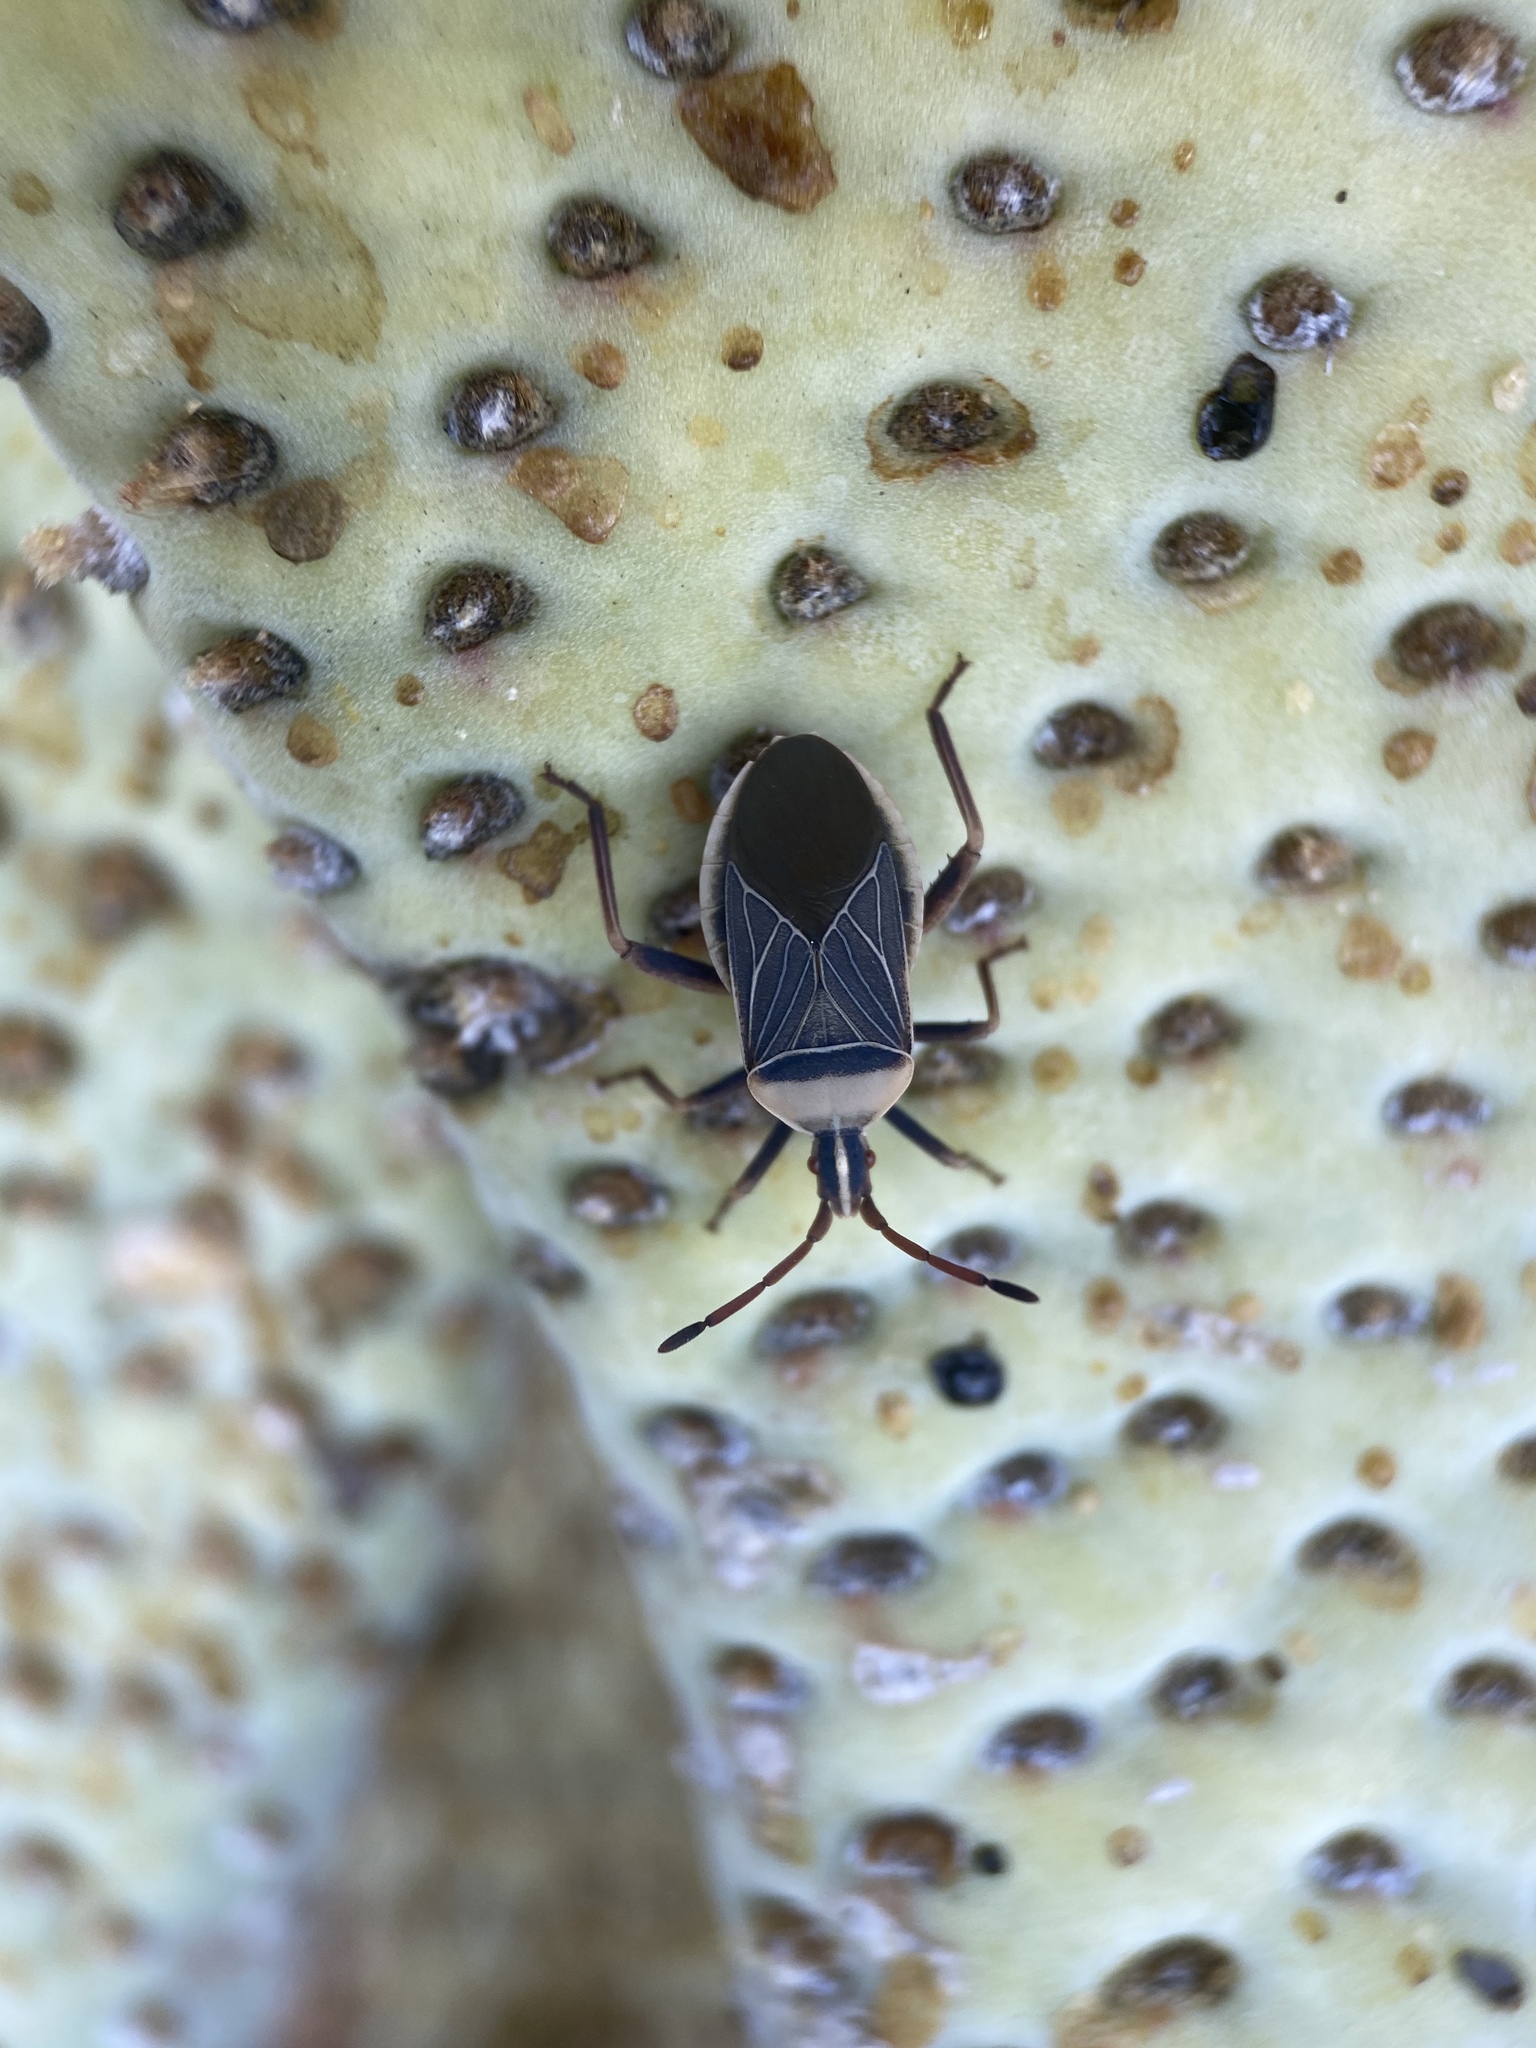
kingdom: Animalia
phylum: Arthropoda
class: Insecta
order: Hemiptera
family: Coreidae
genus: Chelinidea
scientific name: Chelinidea vittiger
